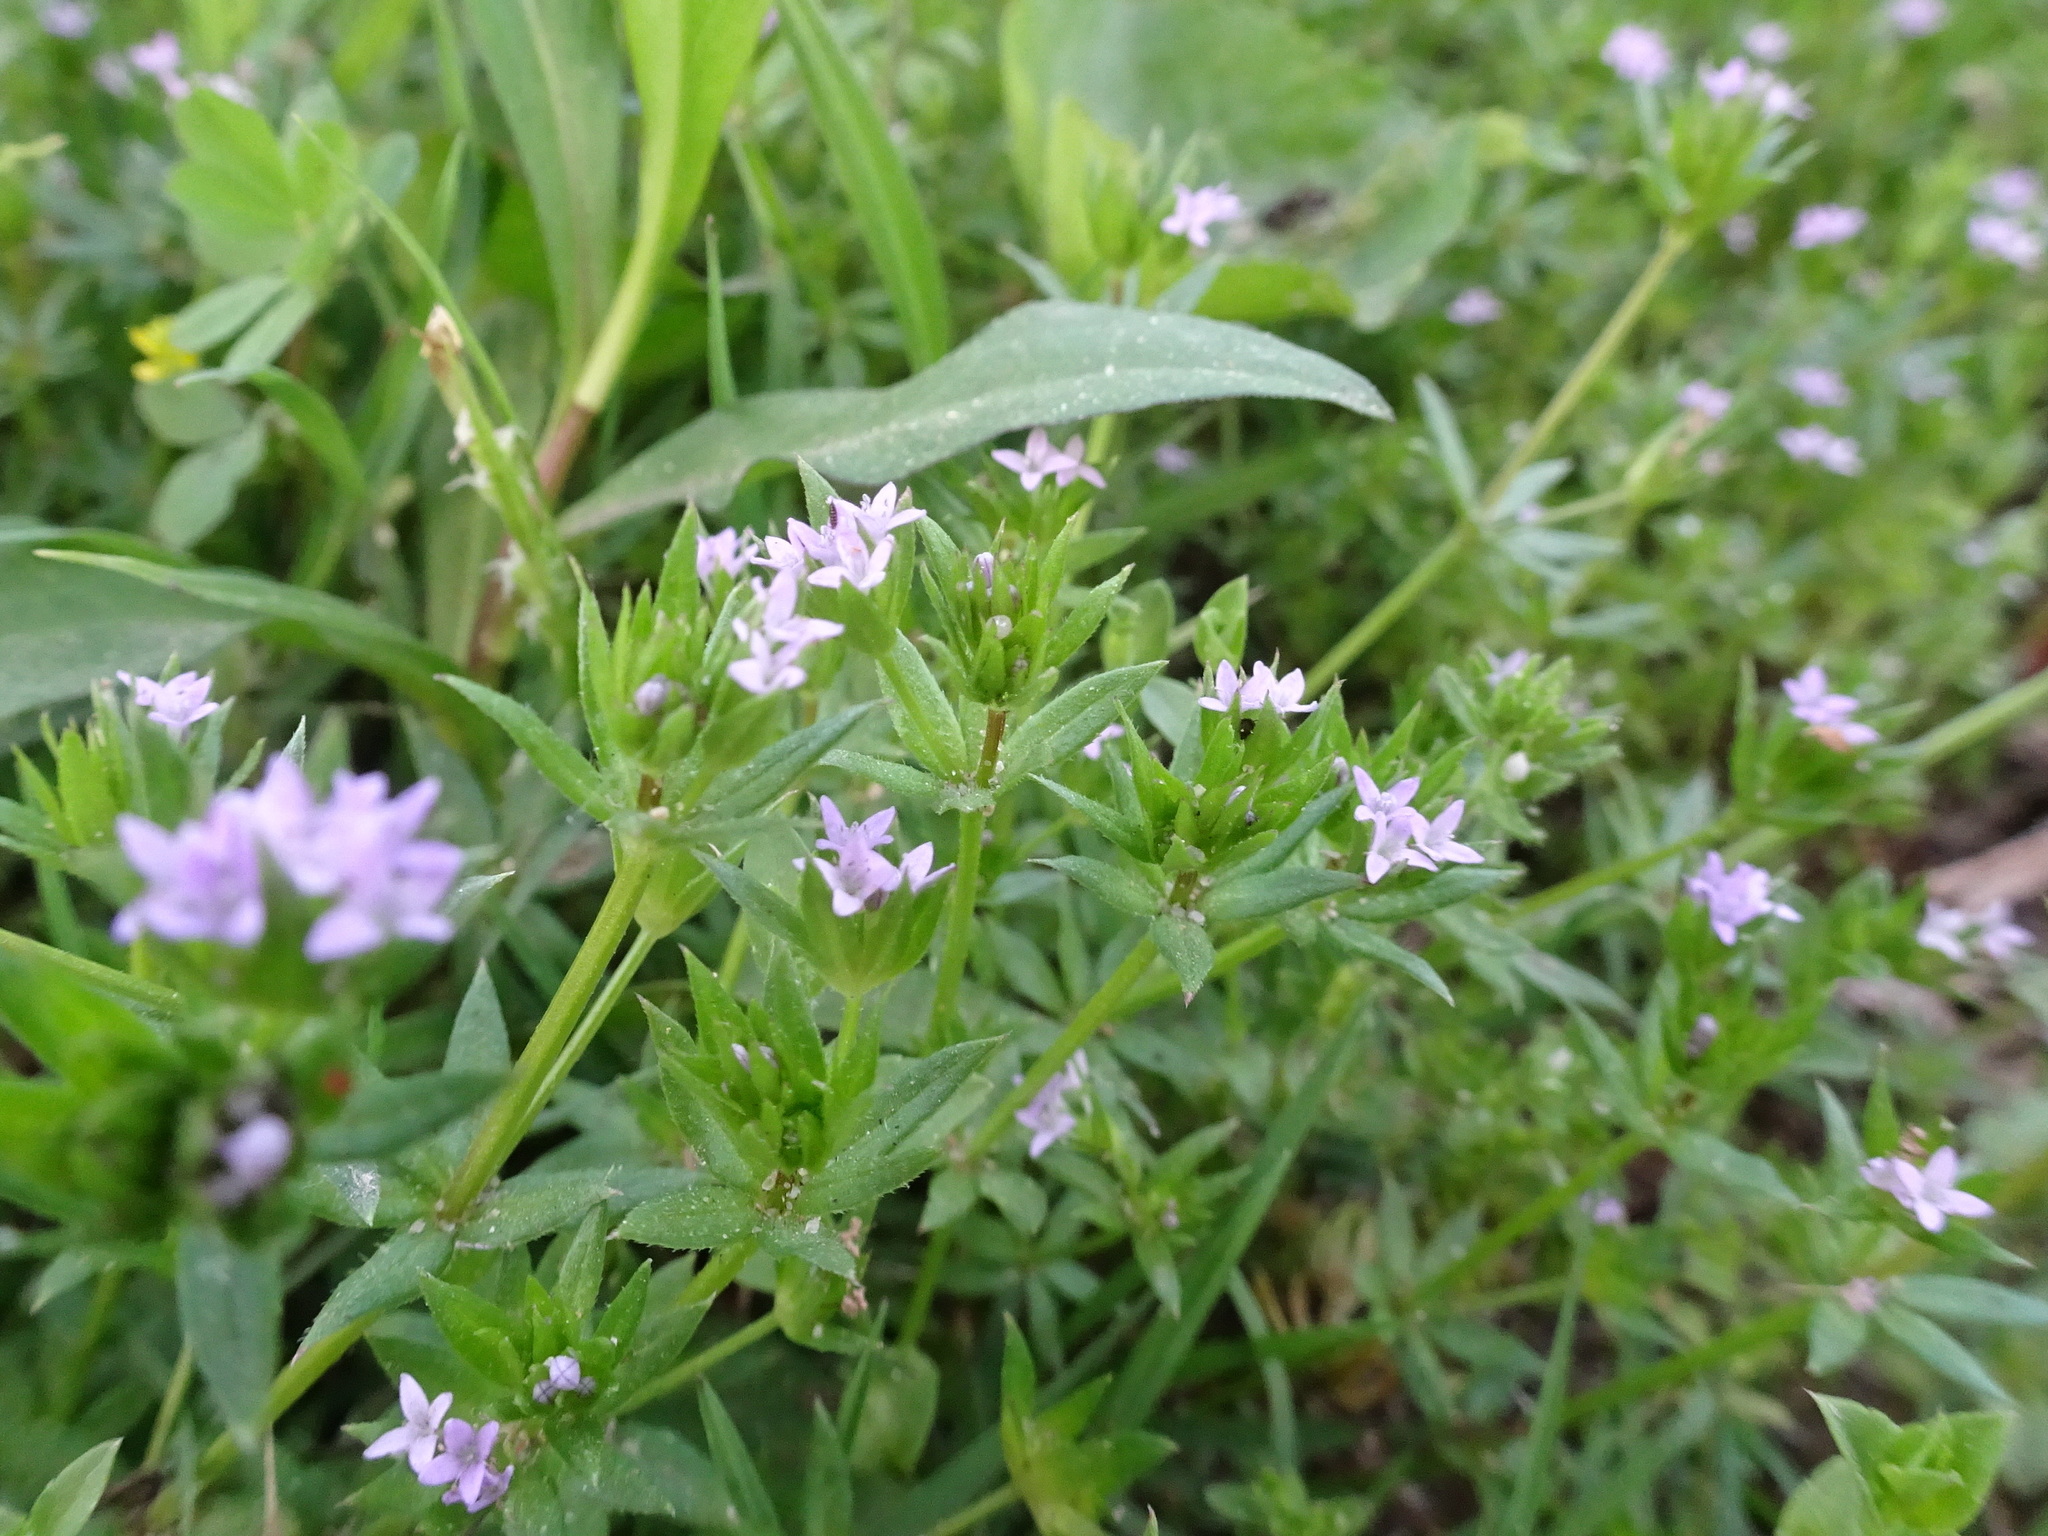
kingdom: Plantae
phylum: Tracheophyta
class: Magnoliopsida
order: Gentianales
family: Rubiaceae
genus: Sherardia
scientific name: Sherardia arvensis
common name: Field madder
